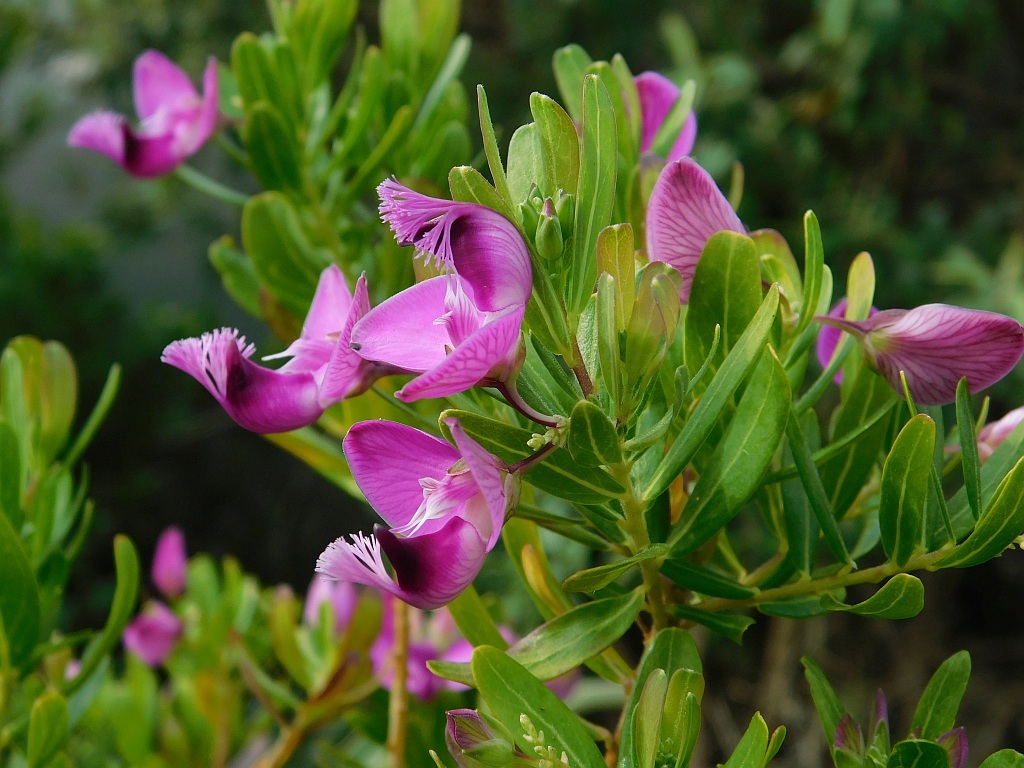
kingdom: Plantae
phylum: Tracheophyta
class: Magnoliopsida
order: Fabales
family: Polygalaceae
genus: Polygala
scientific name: Polygala myrtifolia
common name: Myrtle-leaf milkwort
